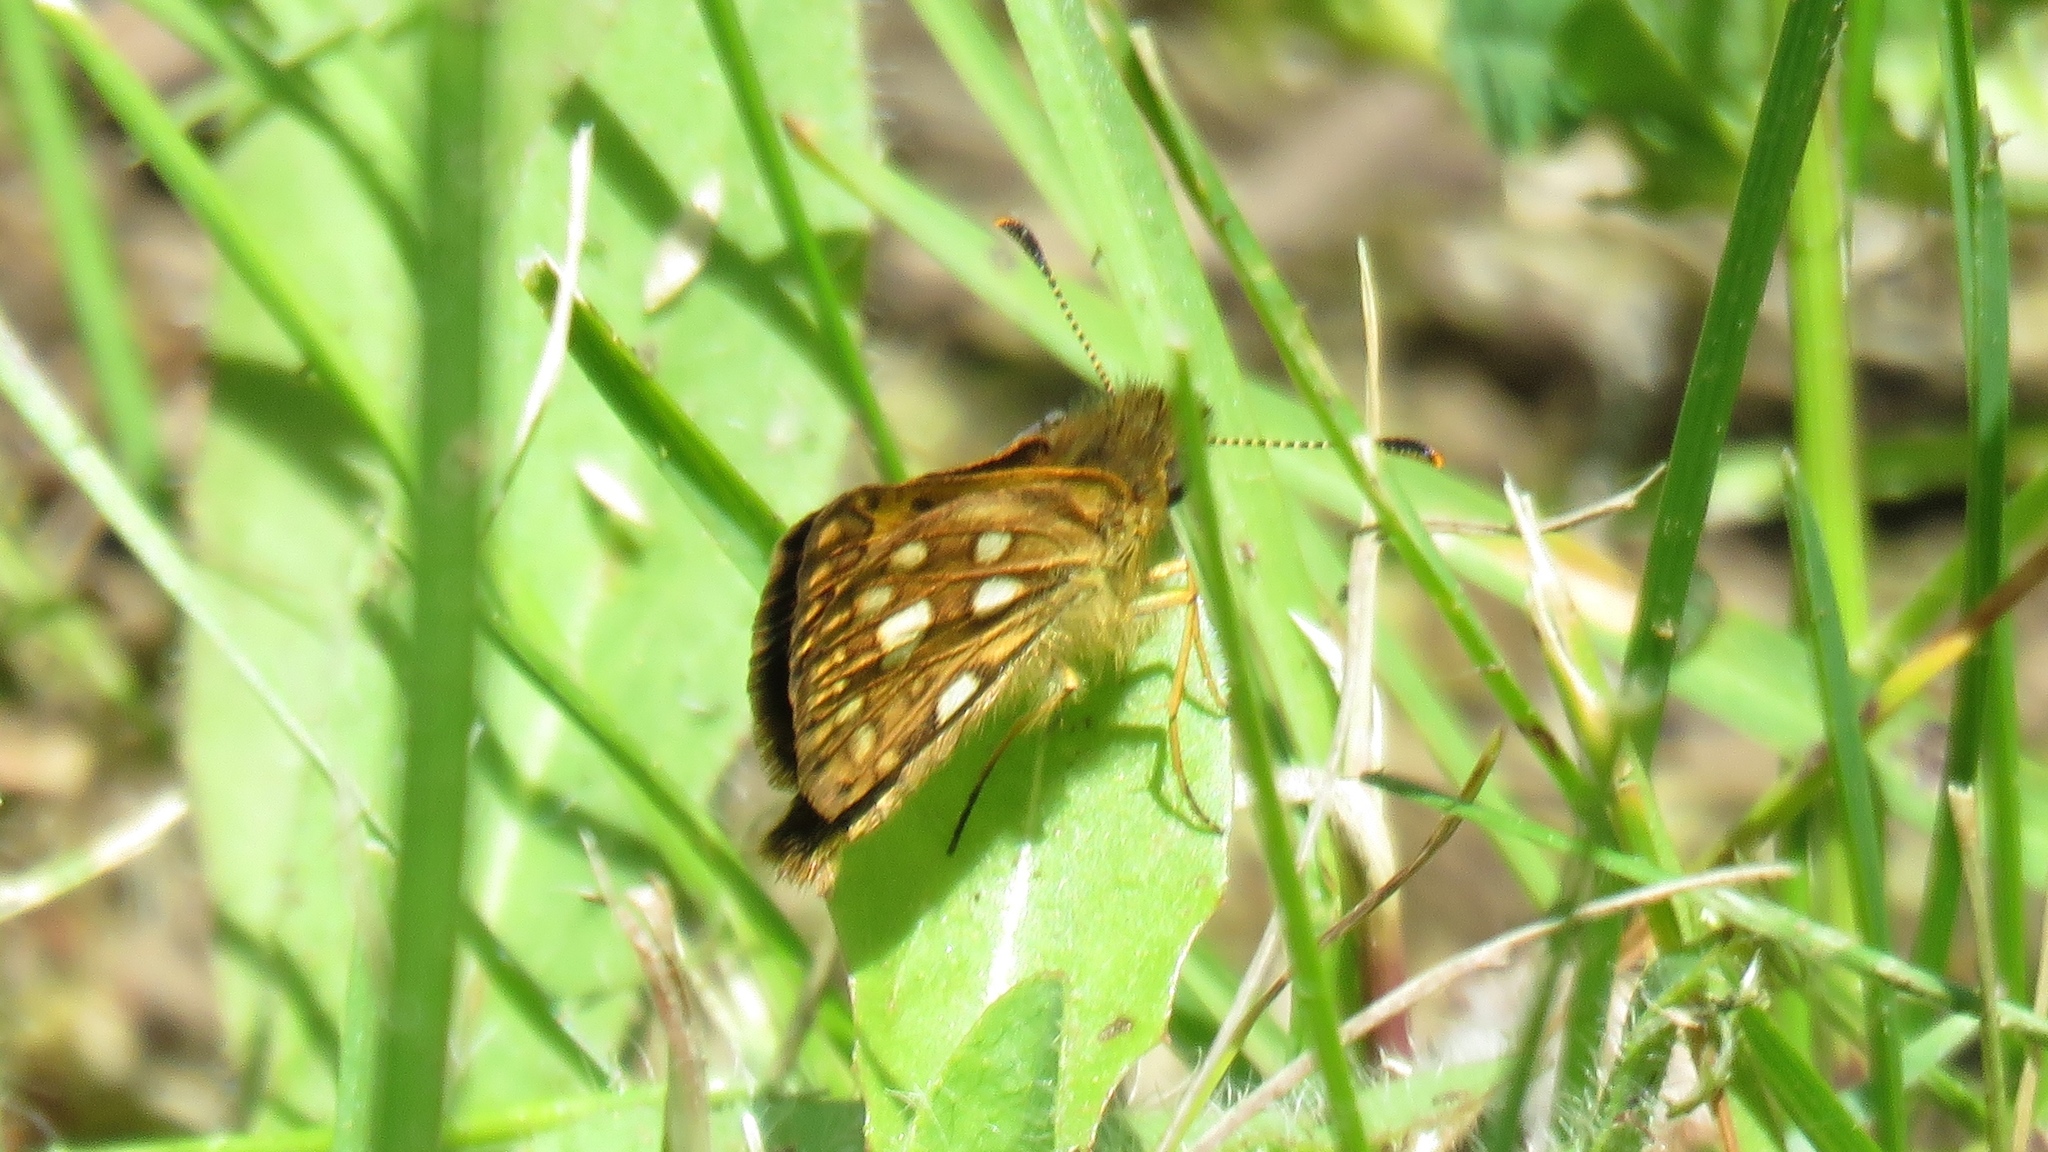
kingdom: Animalia
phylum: Arthropoda
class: Insecta
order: Lepidoptera
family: Hesperiidae
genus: Carterocephalus
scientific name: Carterocephalus mandan
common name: Arctic skipperling
